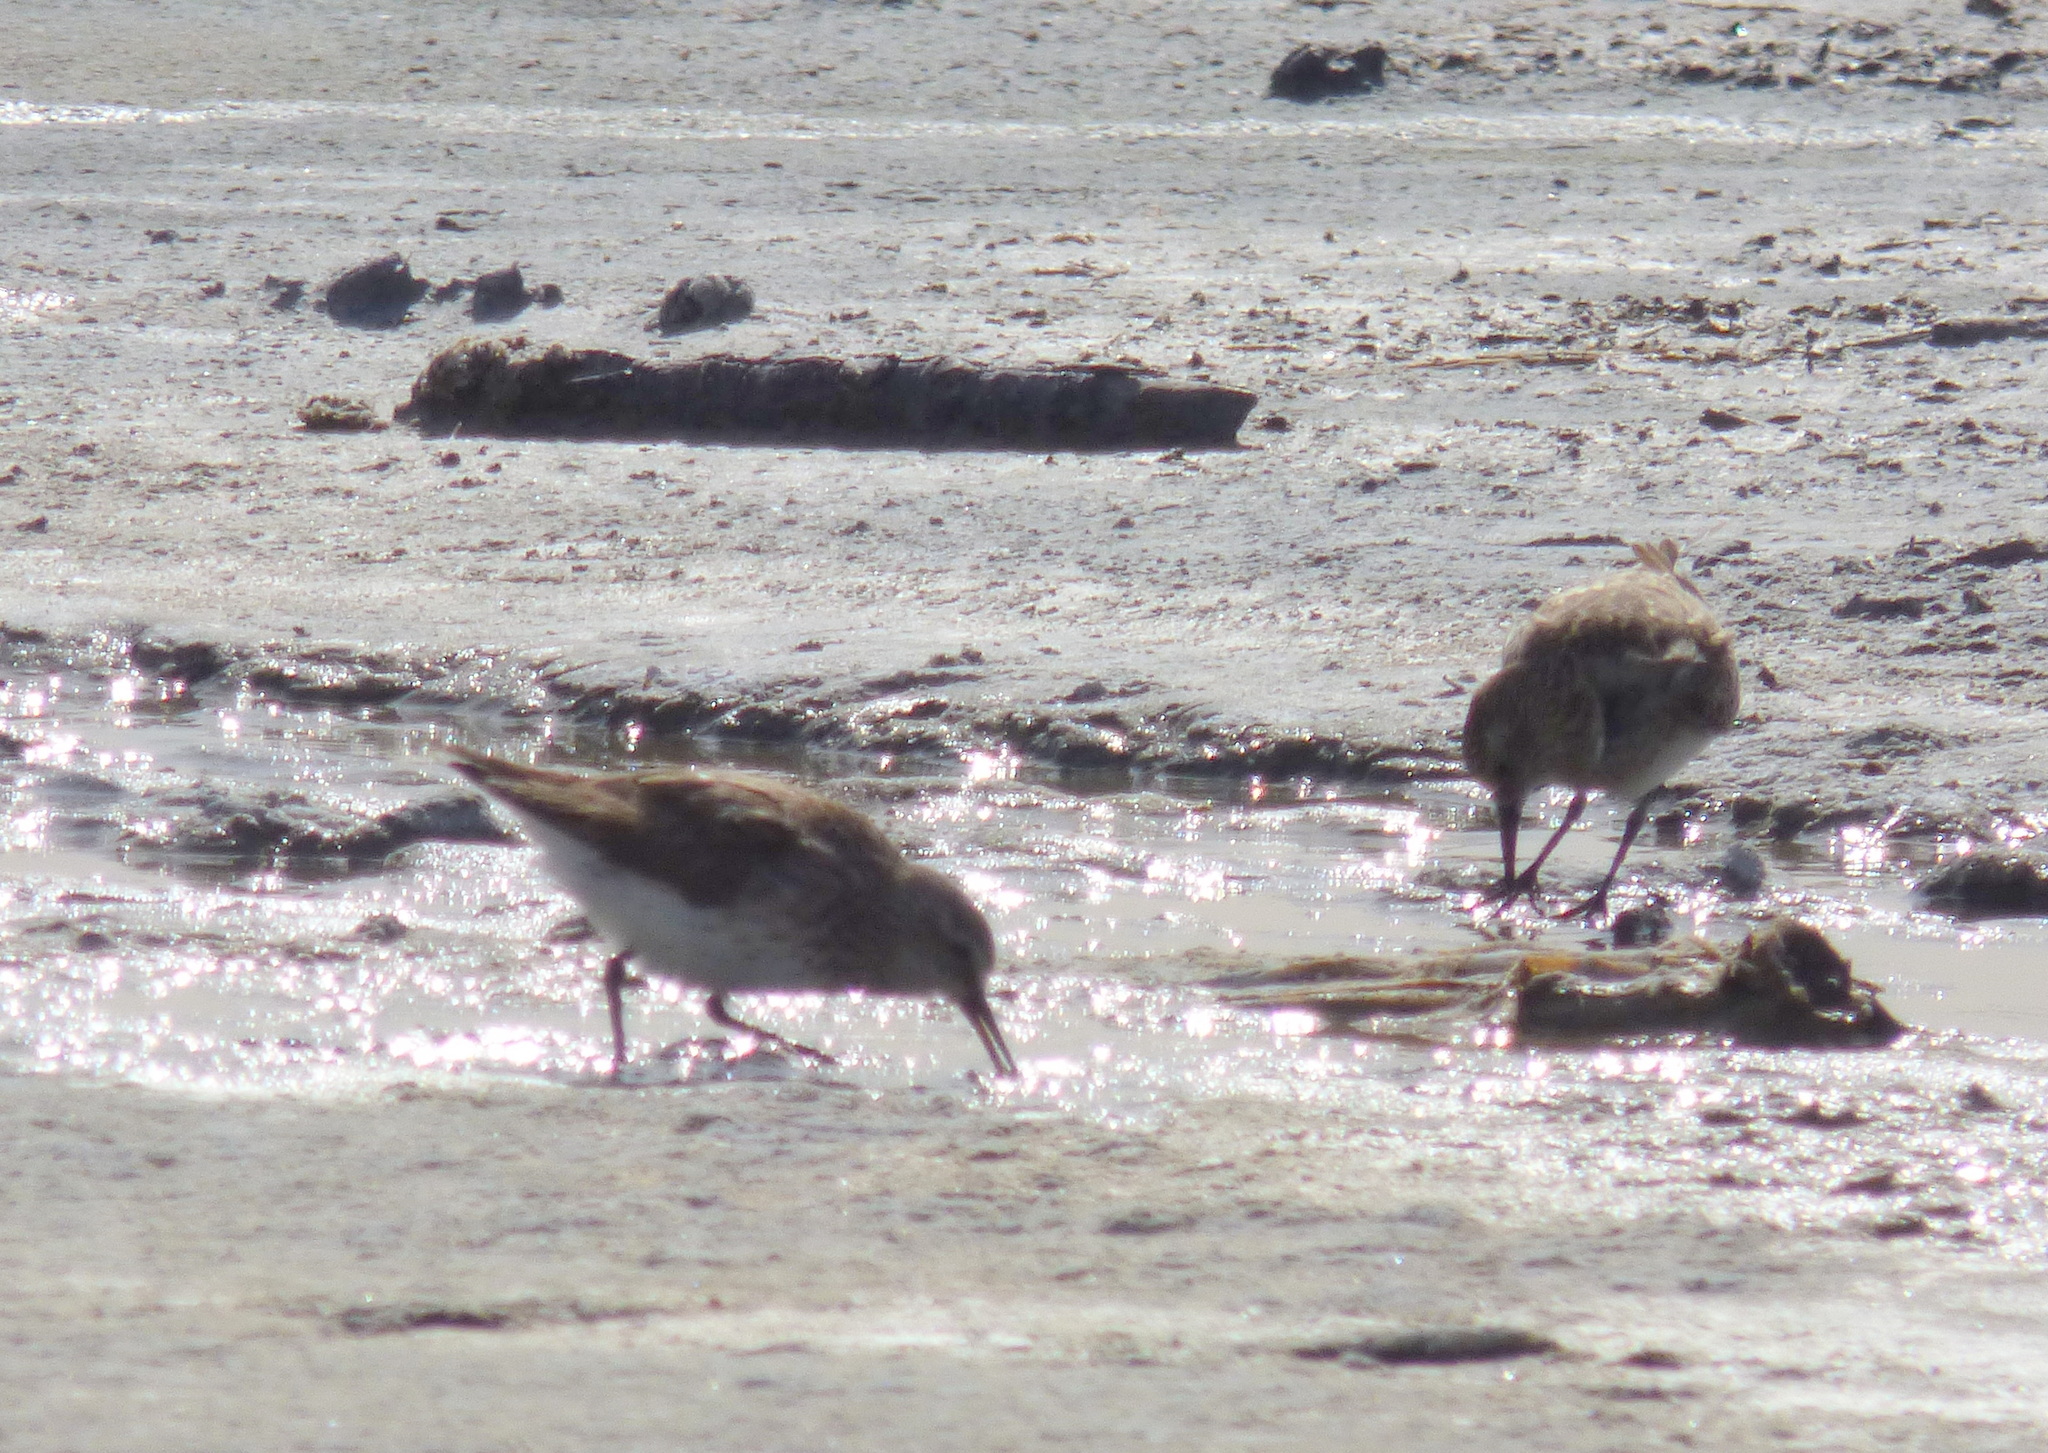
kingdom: Animalia
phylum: Chordata
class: Aves
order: Charadriiformes
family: Scolopacidae
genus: Calidris
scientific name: Calidris fuscicollis
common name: White-rumped sandpiper
